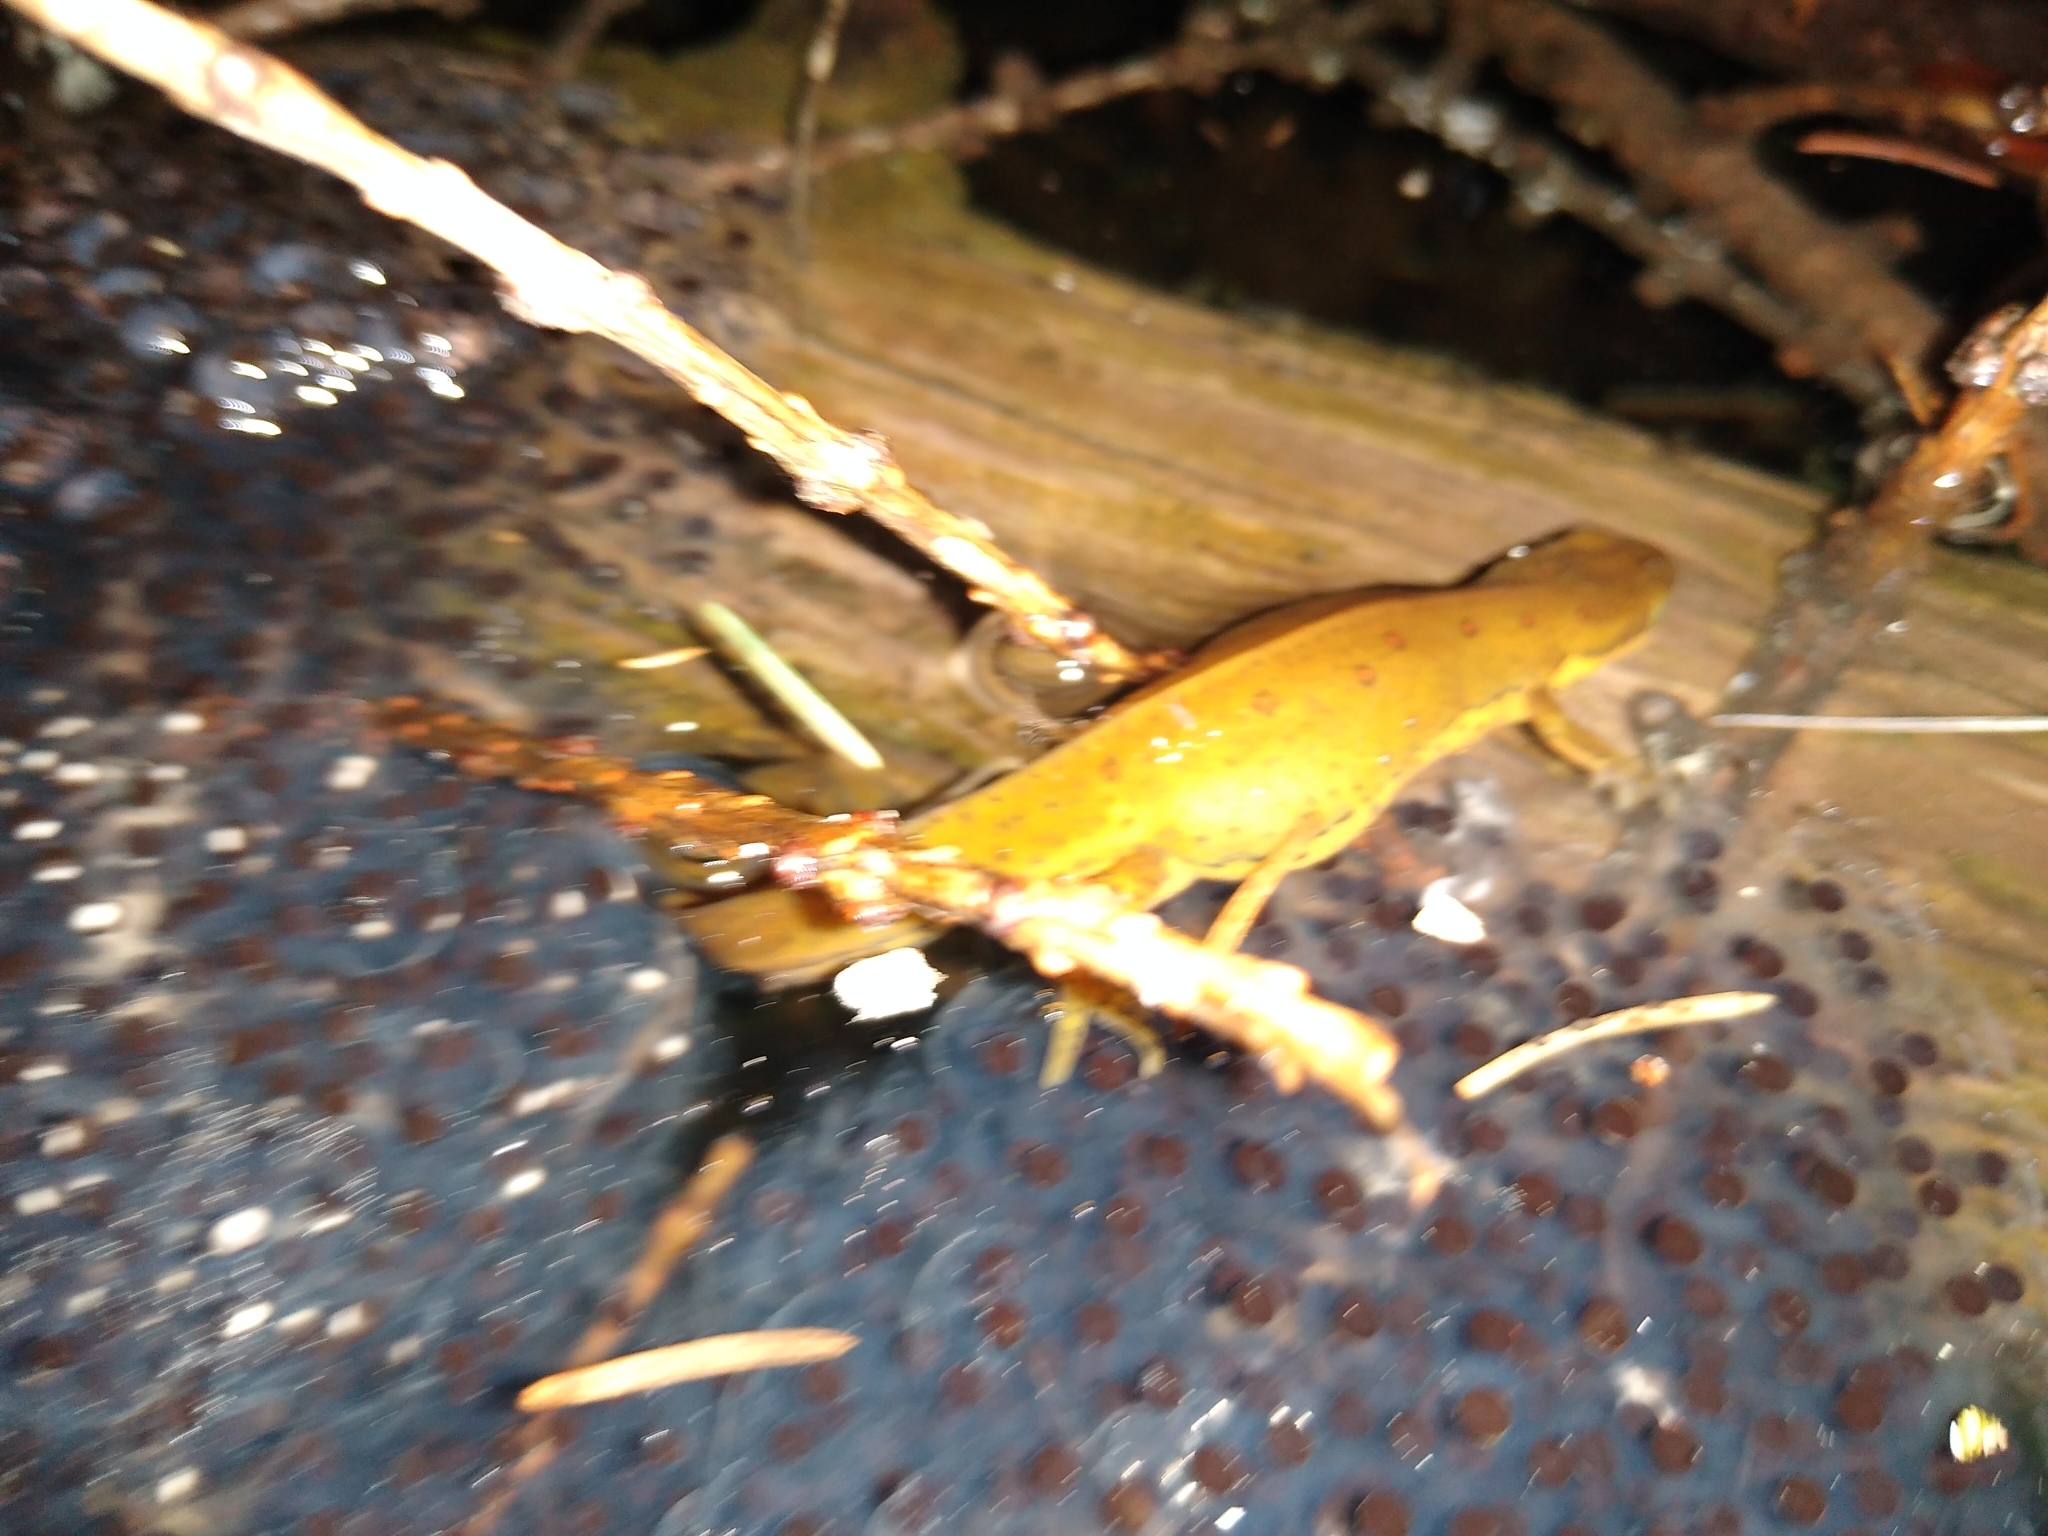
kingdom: Animalia
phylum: Chordata
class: Amphibia
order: Caudata
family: Salamandridae
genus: Notophthalmus
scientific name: Notophthalmus viridescens
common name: Eastern newt
